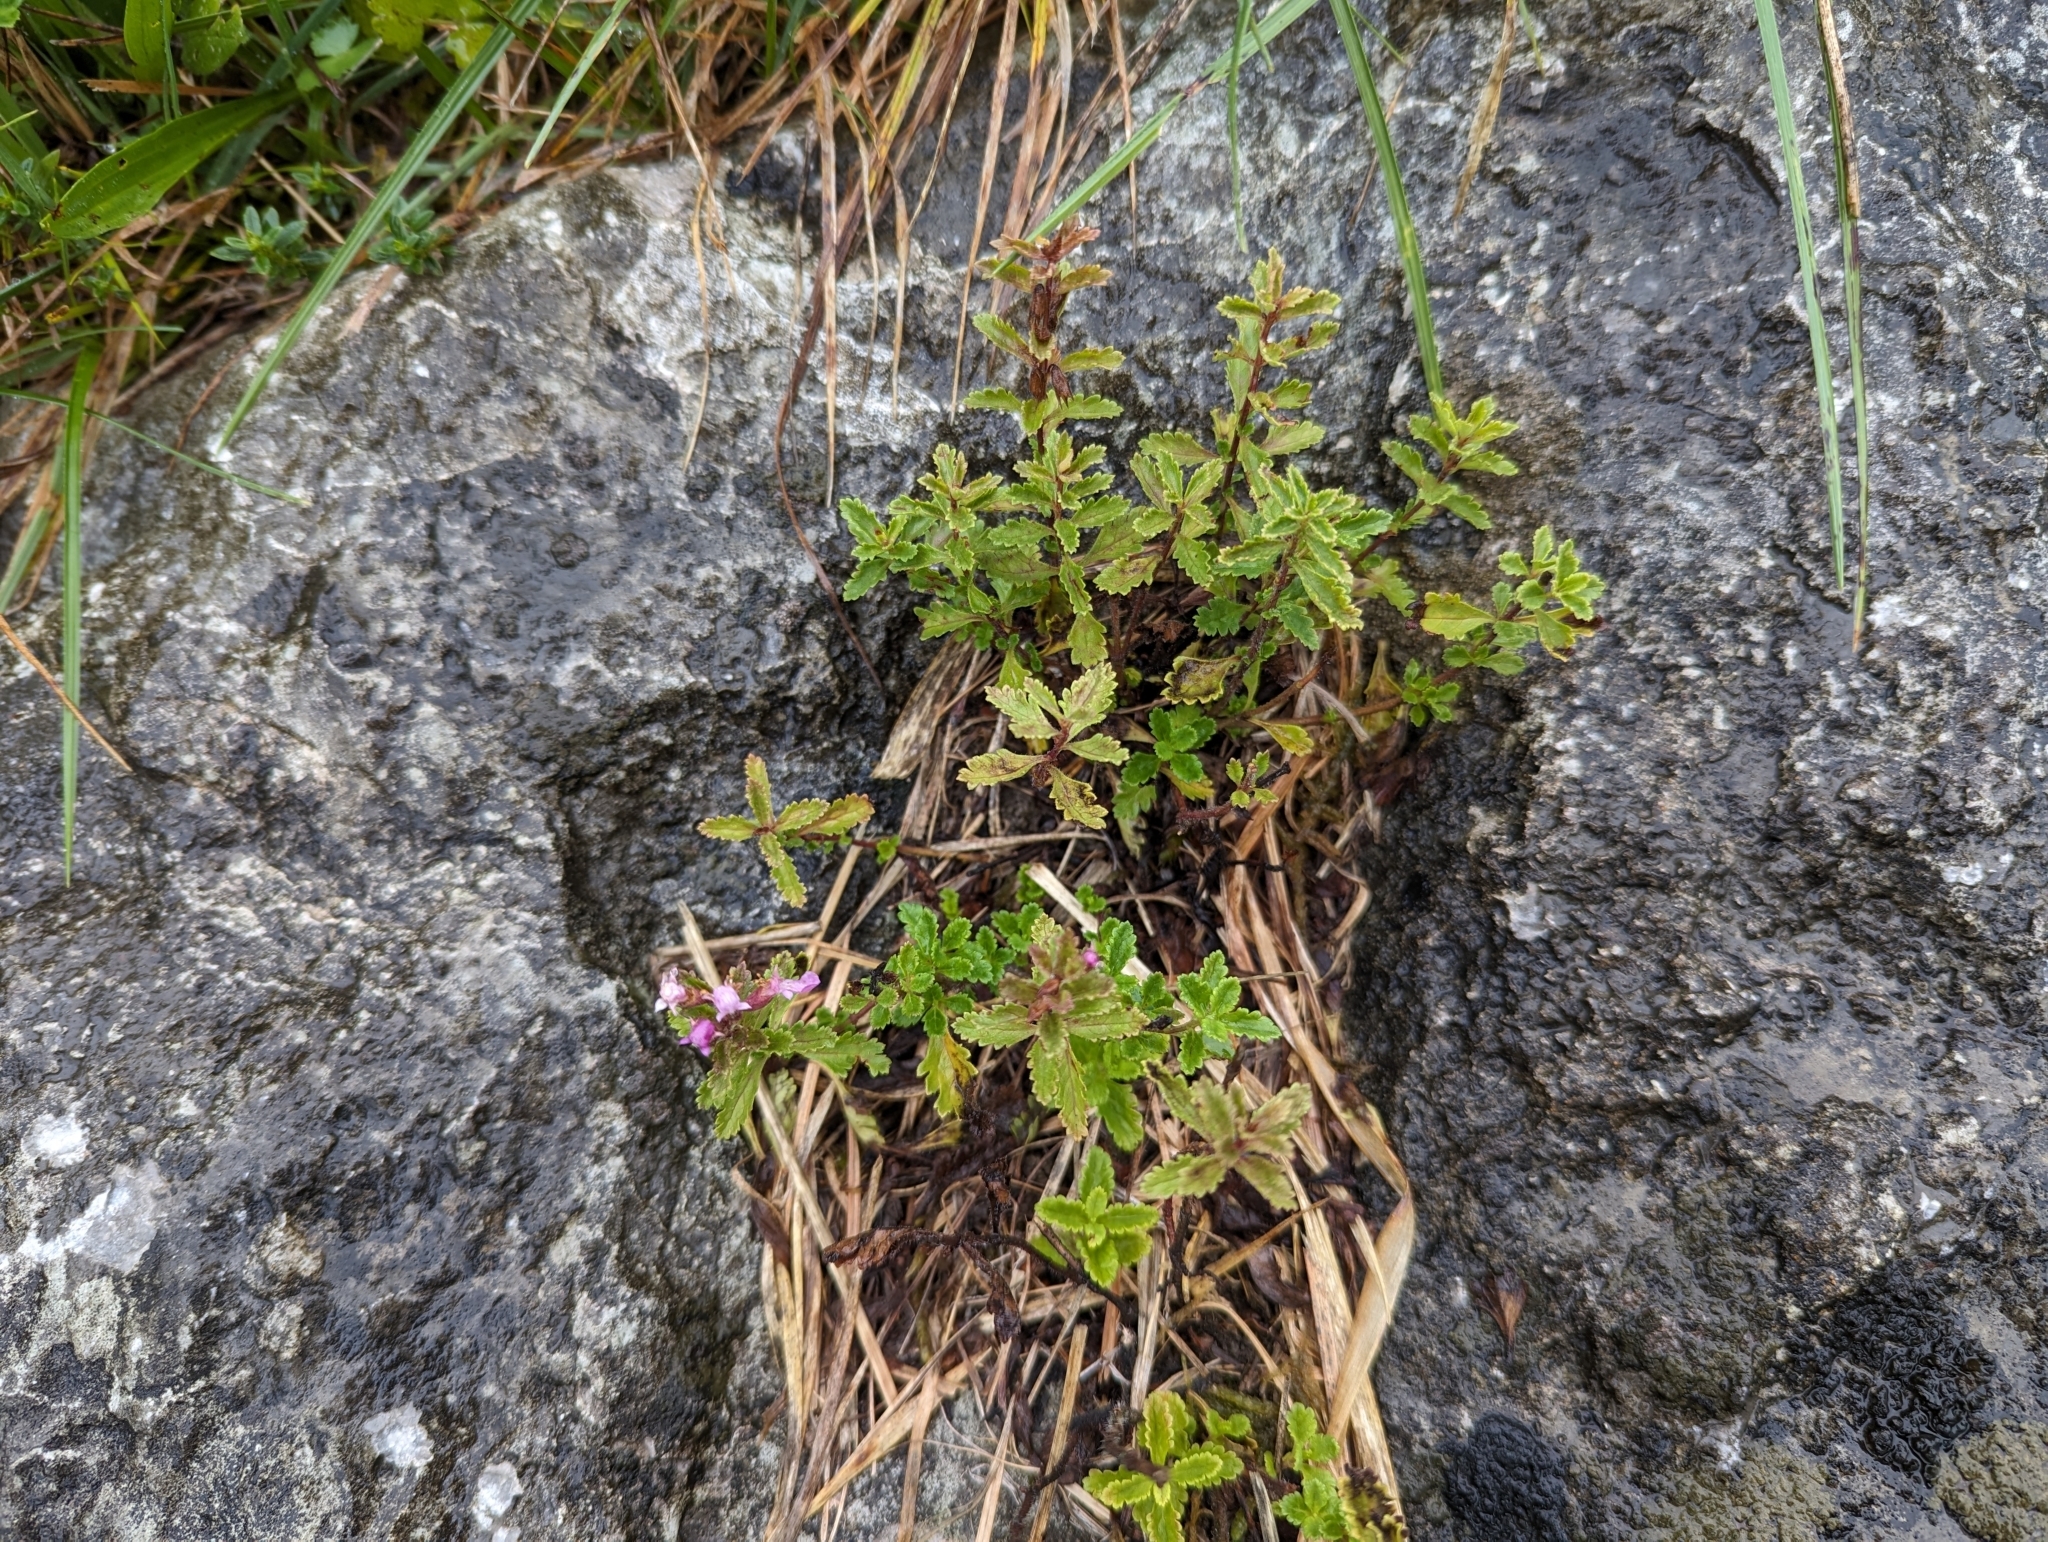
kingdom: Plantae
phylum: Tracheophyta
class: Magnoliopsida
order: Lamiales
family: Lamiaceae
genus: Teucrium
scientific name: Teucrium chamaedrys
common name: Wall germander
